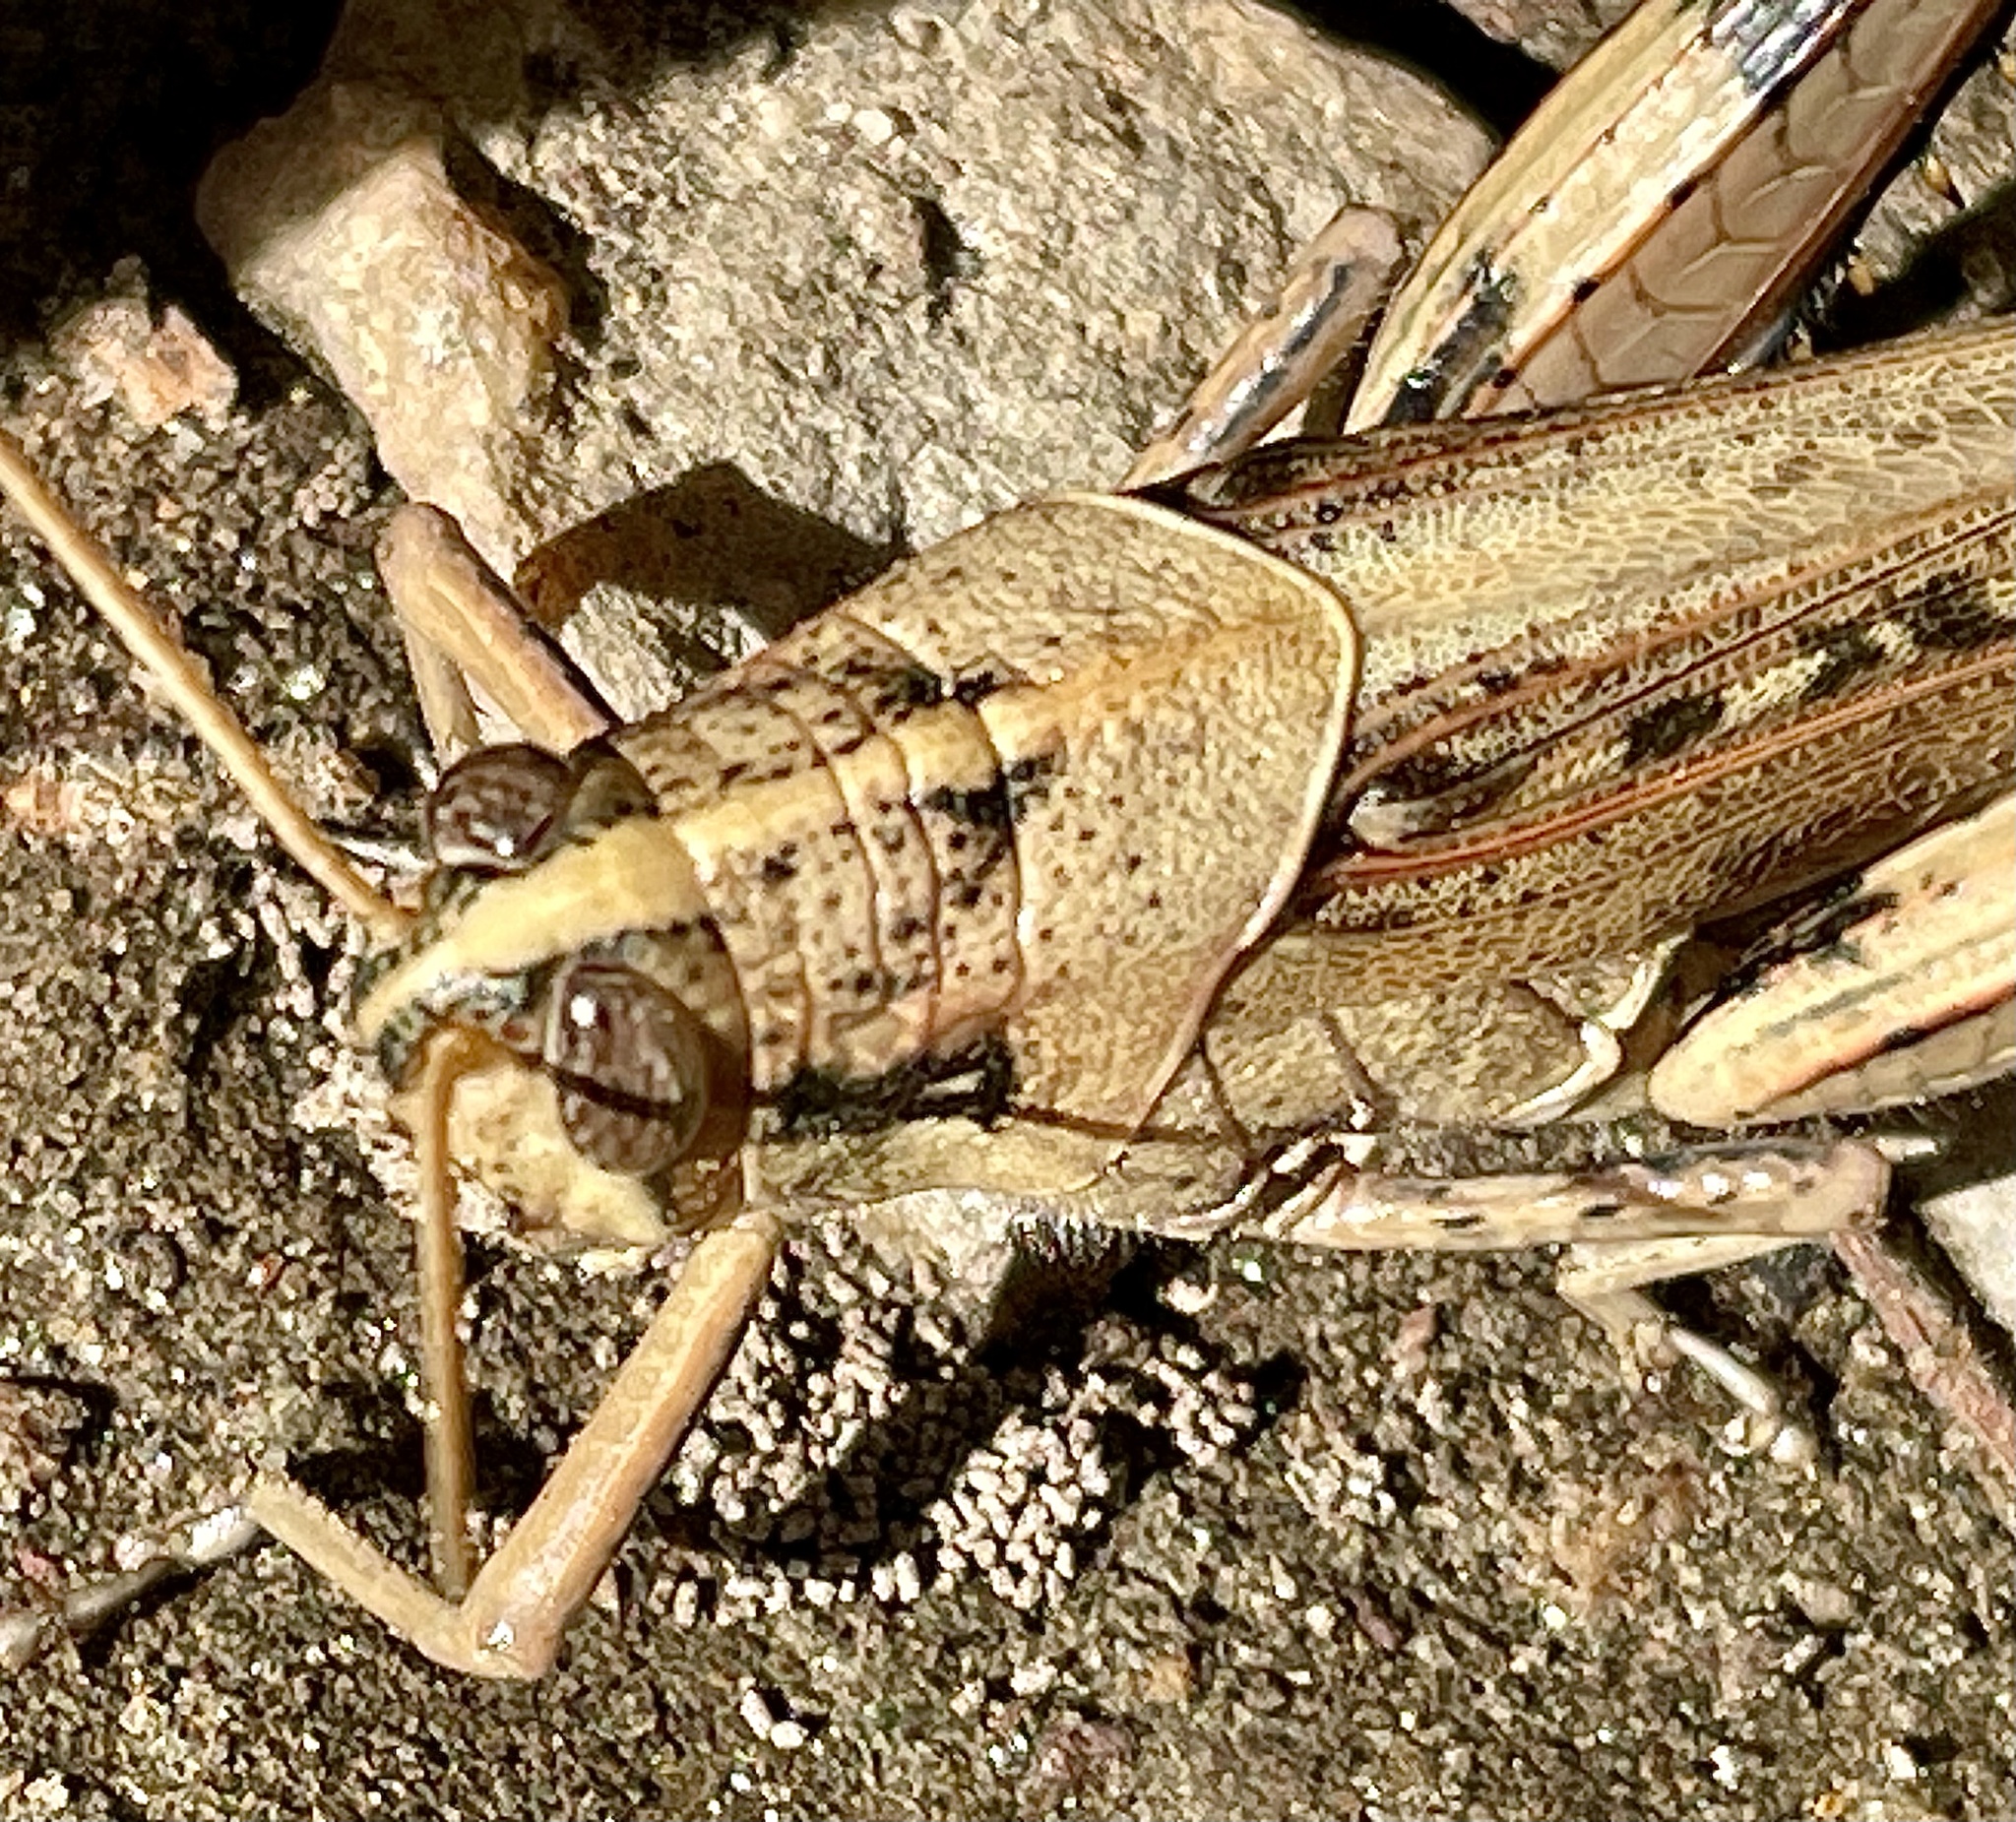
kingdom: Animalia
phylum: Arthropoda
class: Insecta
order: Orthoptera
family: Acrididae
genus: Schistocerca
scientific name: Schistocerca nitens
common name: Vagrant grasshopper
